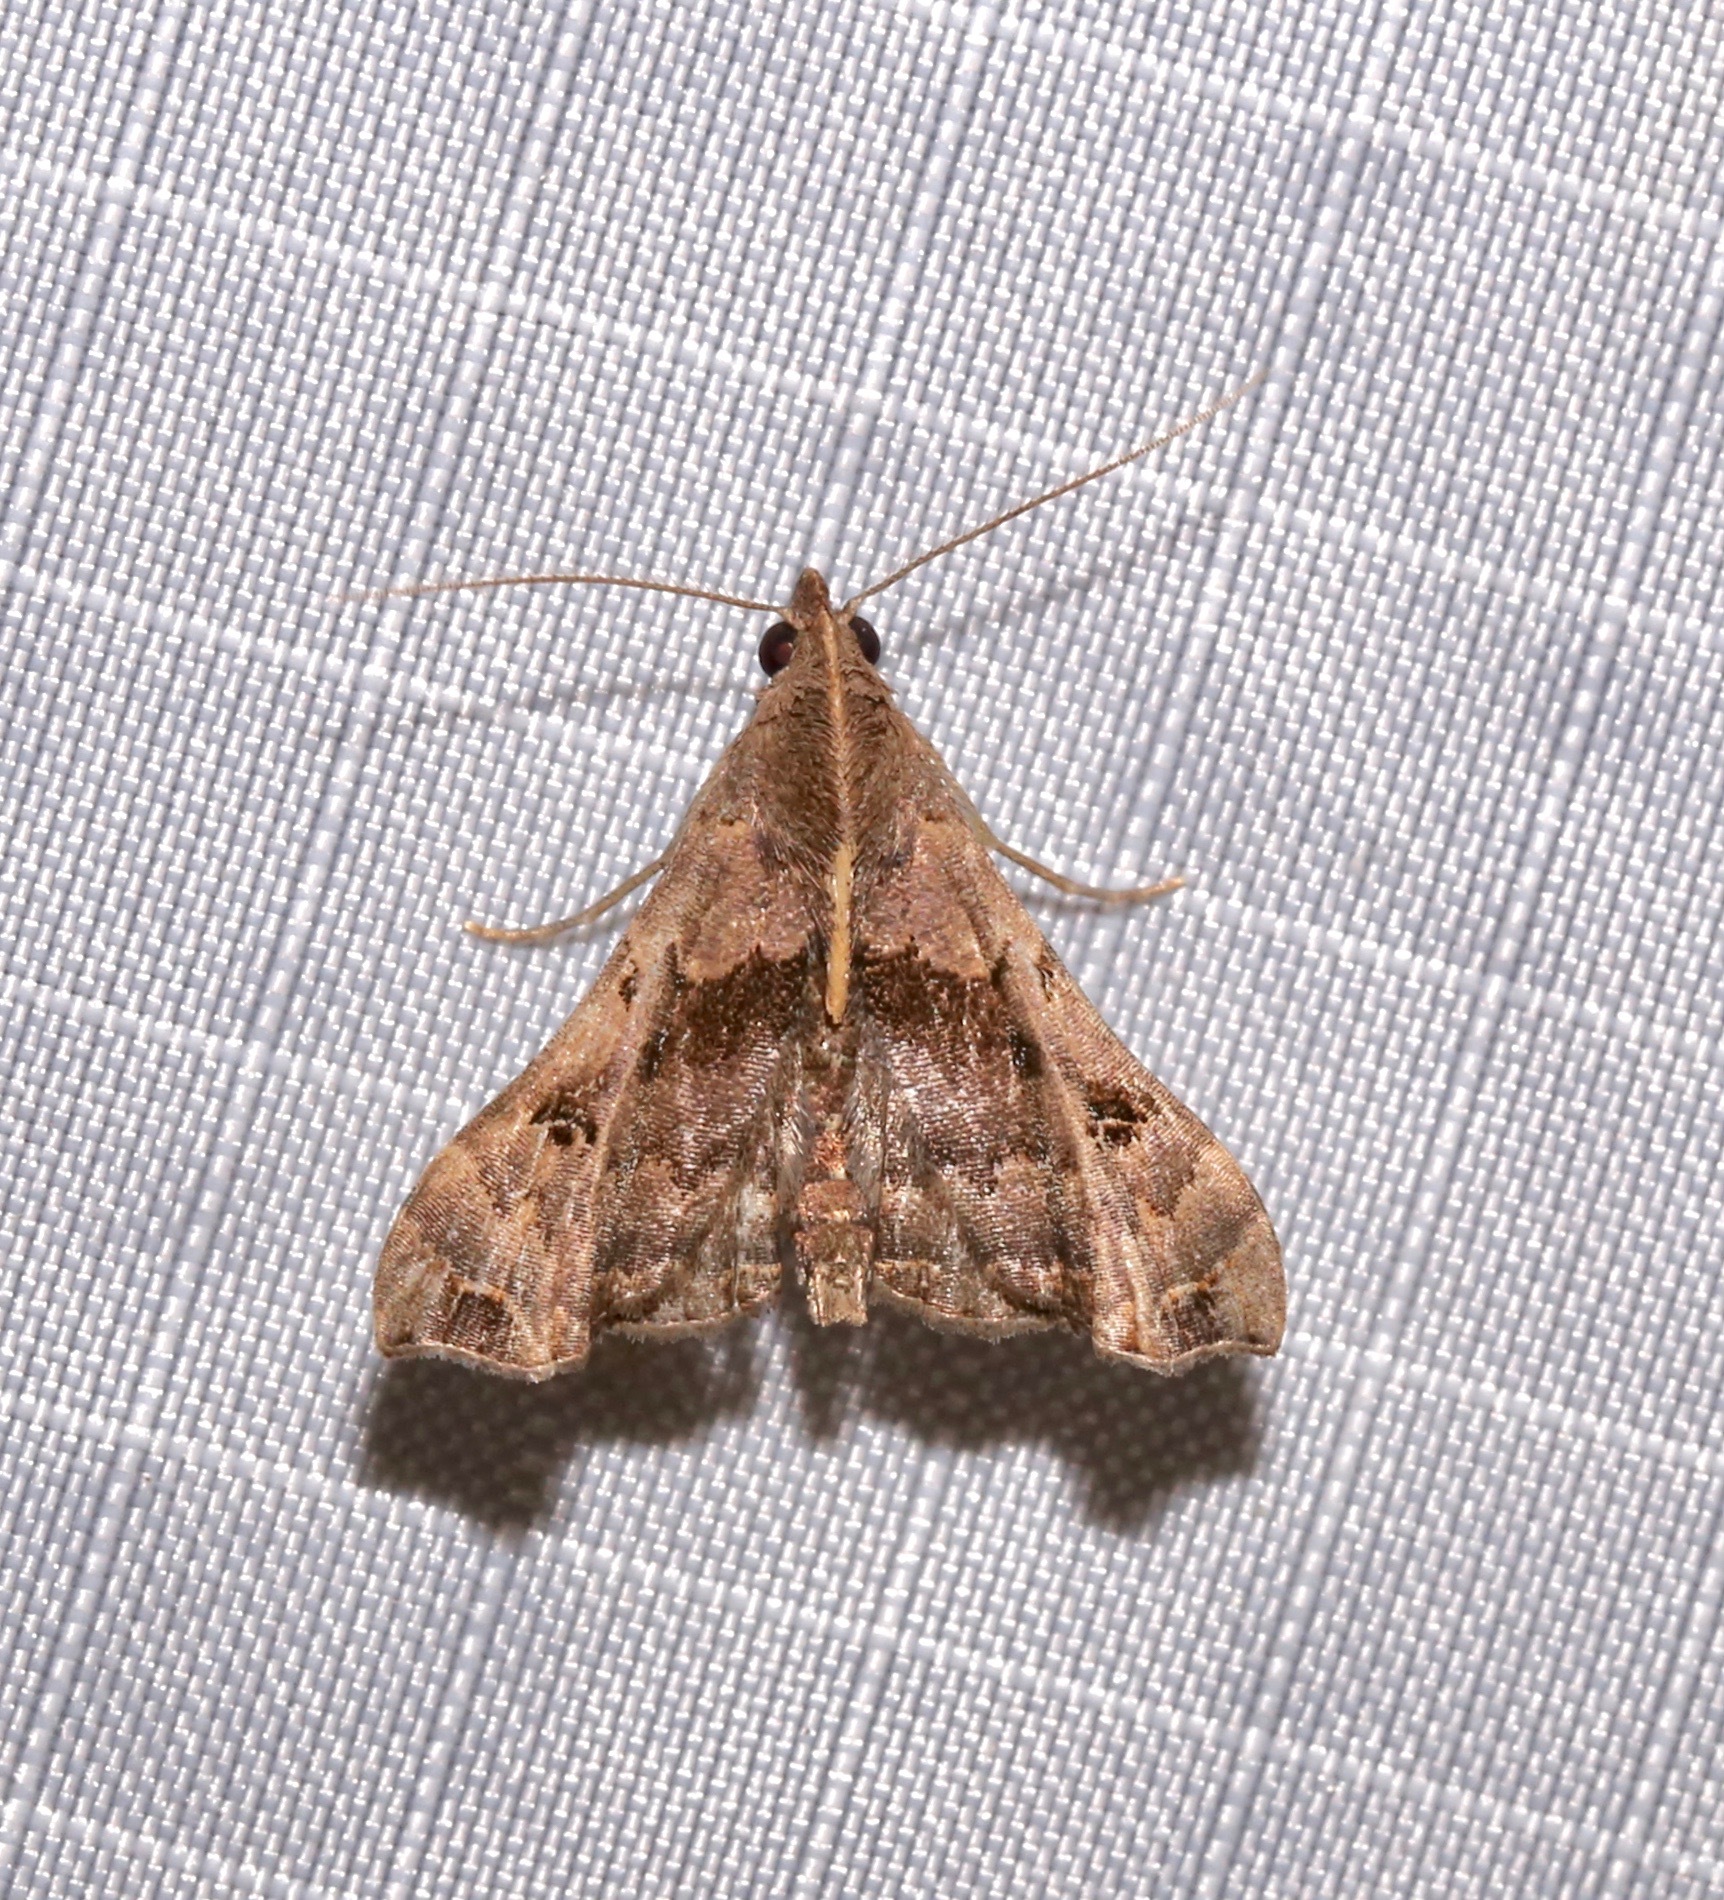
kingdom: Animalia
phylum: Arthropoda
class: Insecta
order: Lepidoptera
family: Erebidae
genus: Palthis
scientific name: Palthis asopialis
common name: Faint-spotted palthis moth
